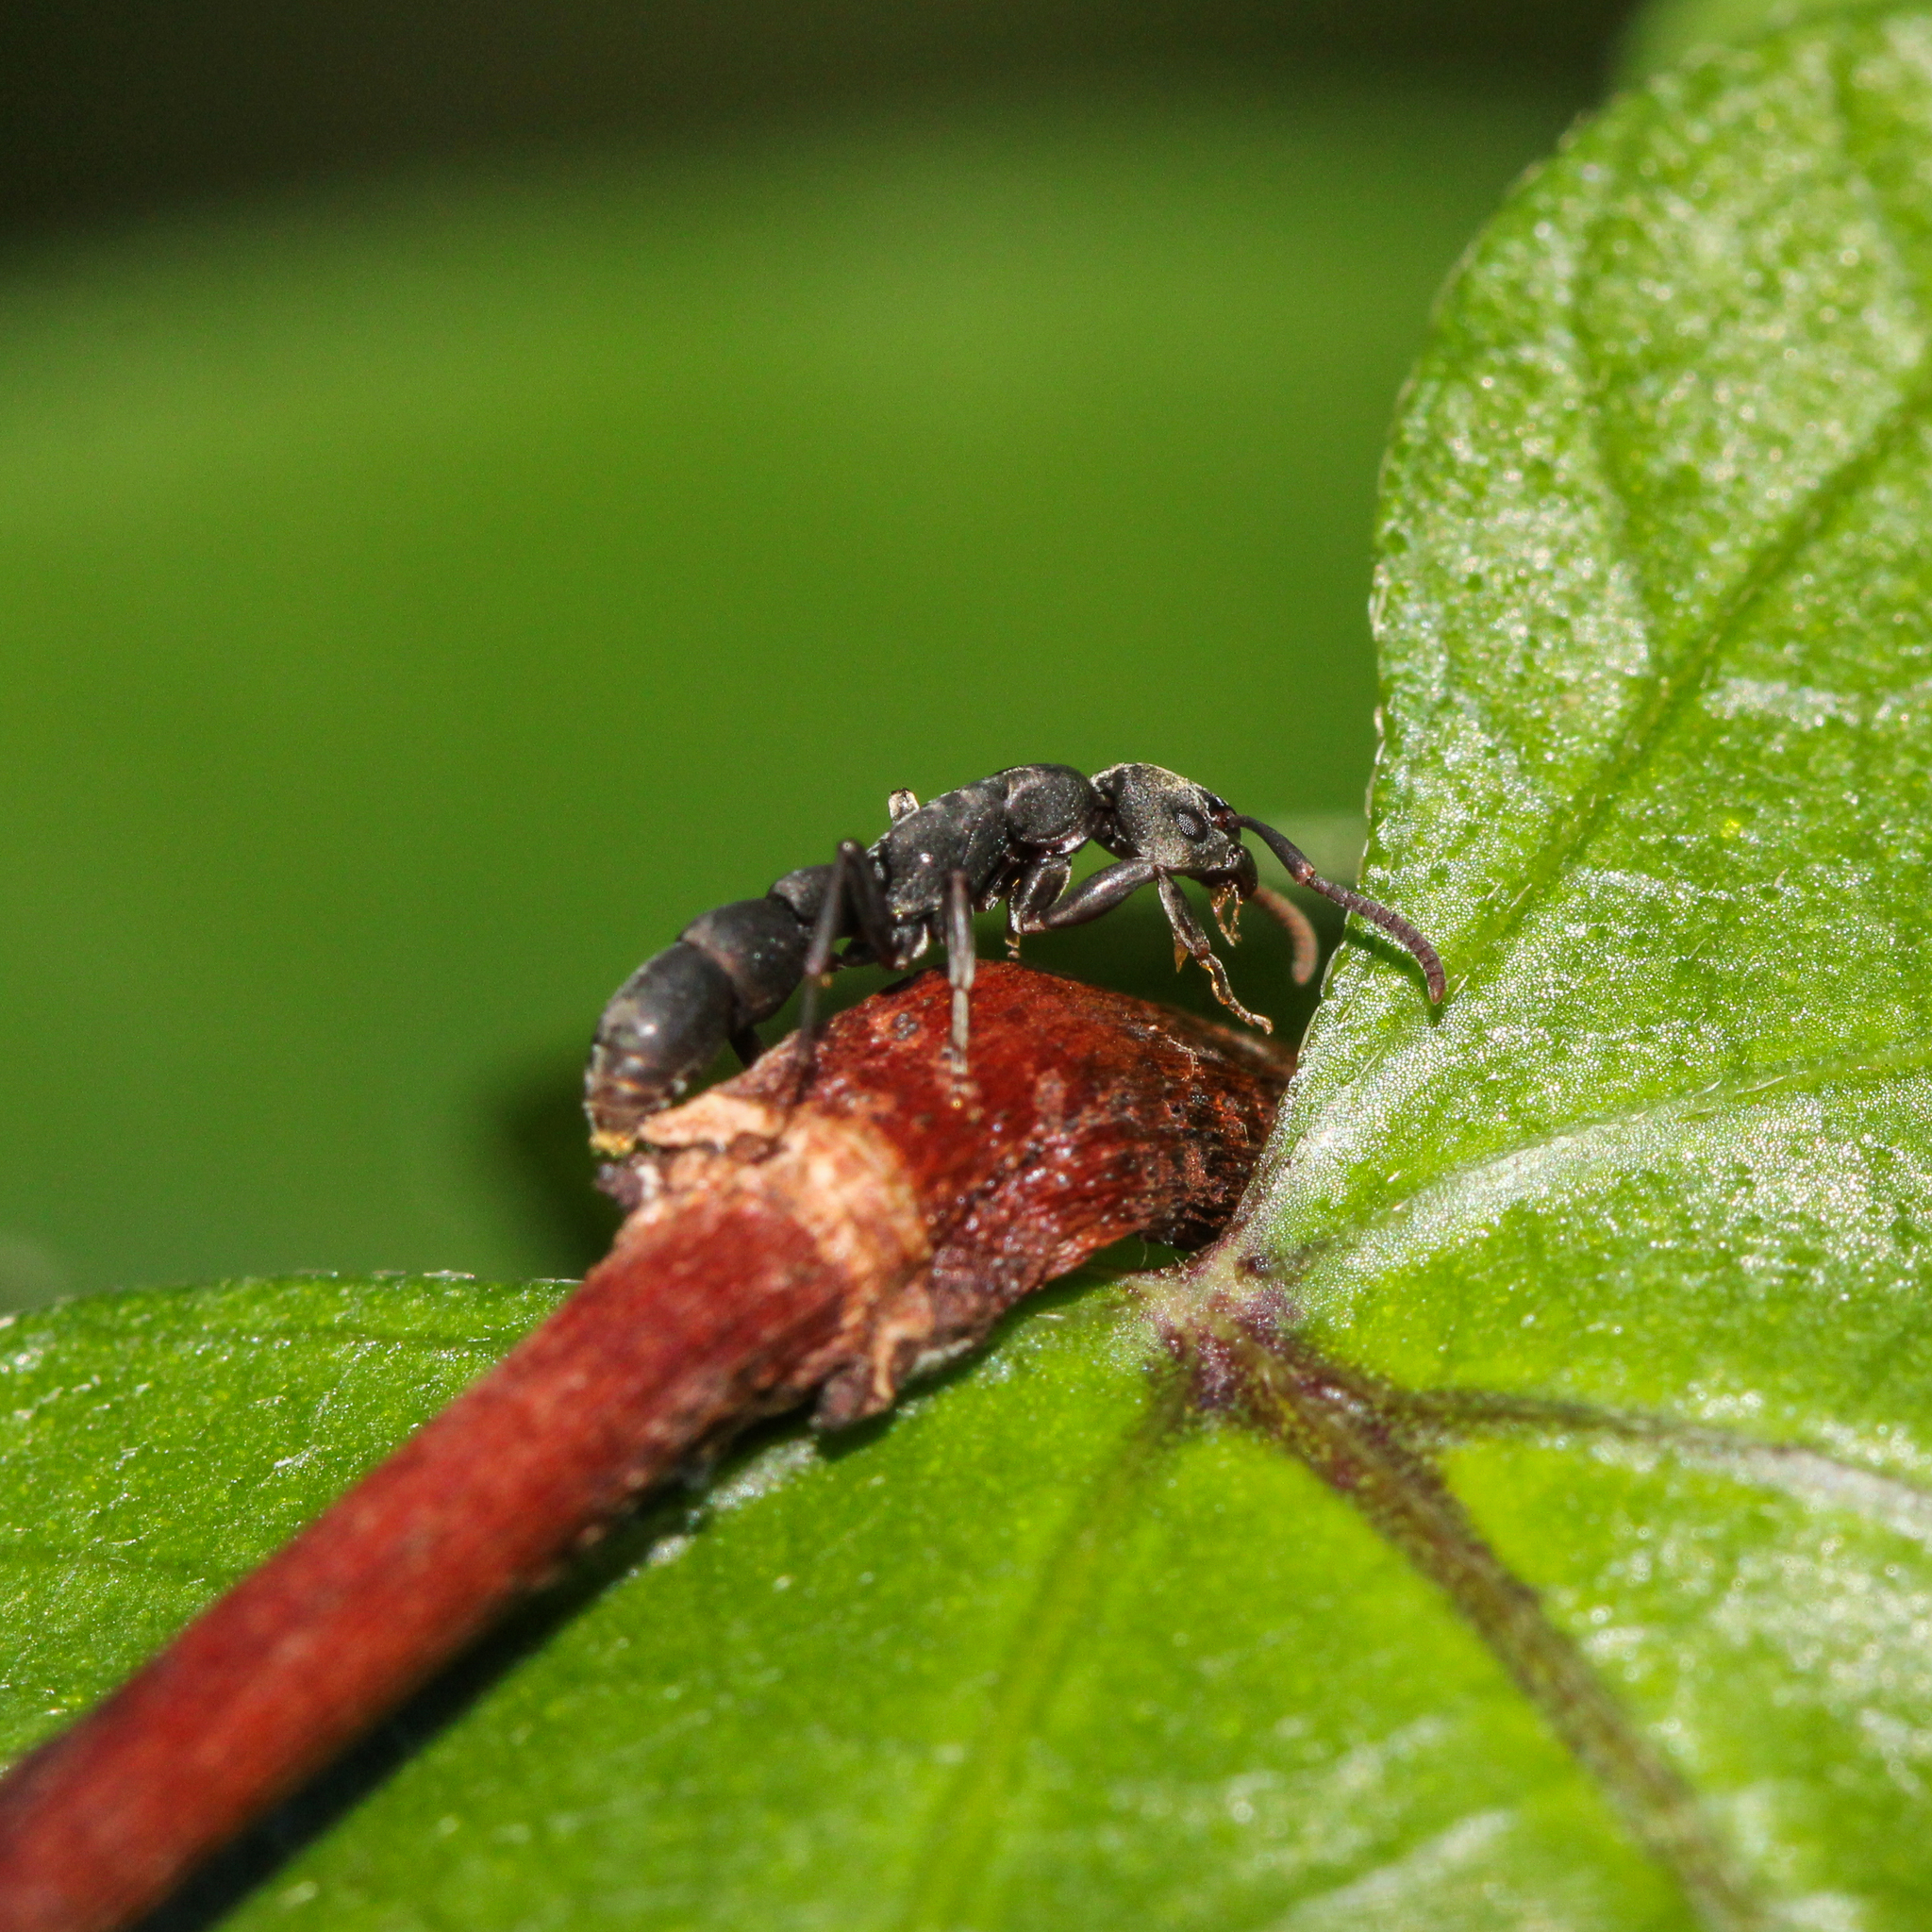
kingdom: Animalia
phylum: Arthropoda
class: Insecta
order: Hymenoptera
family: Formicidae
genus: Platythyrea
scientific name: Platythyrea punctata
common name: Ant
